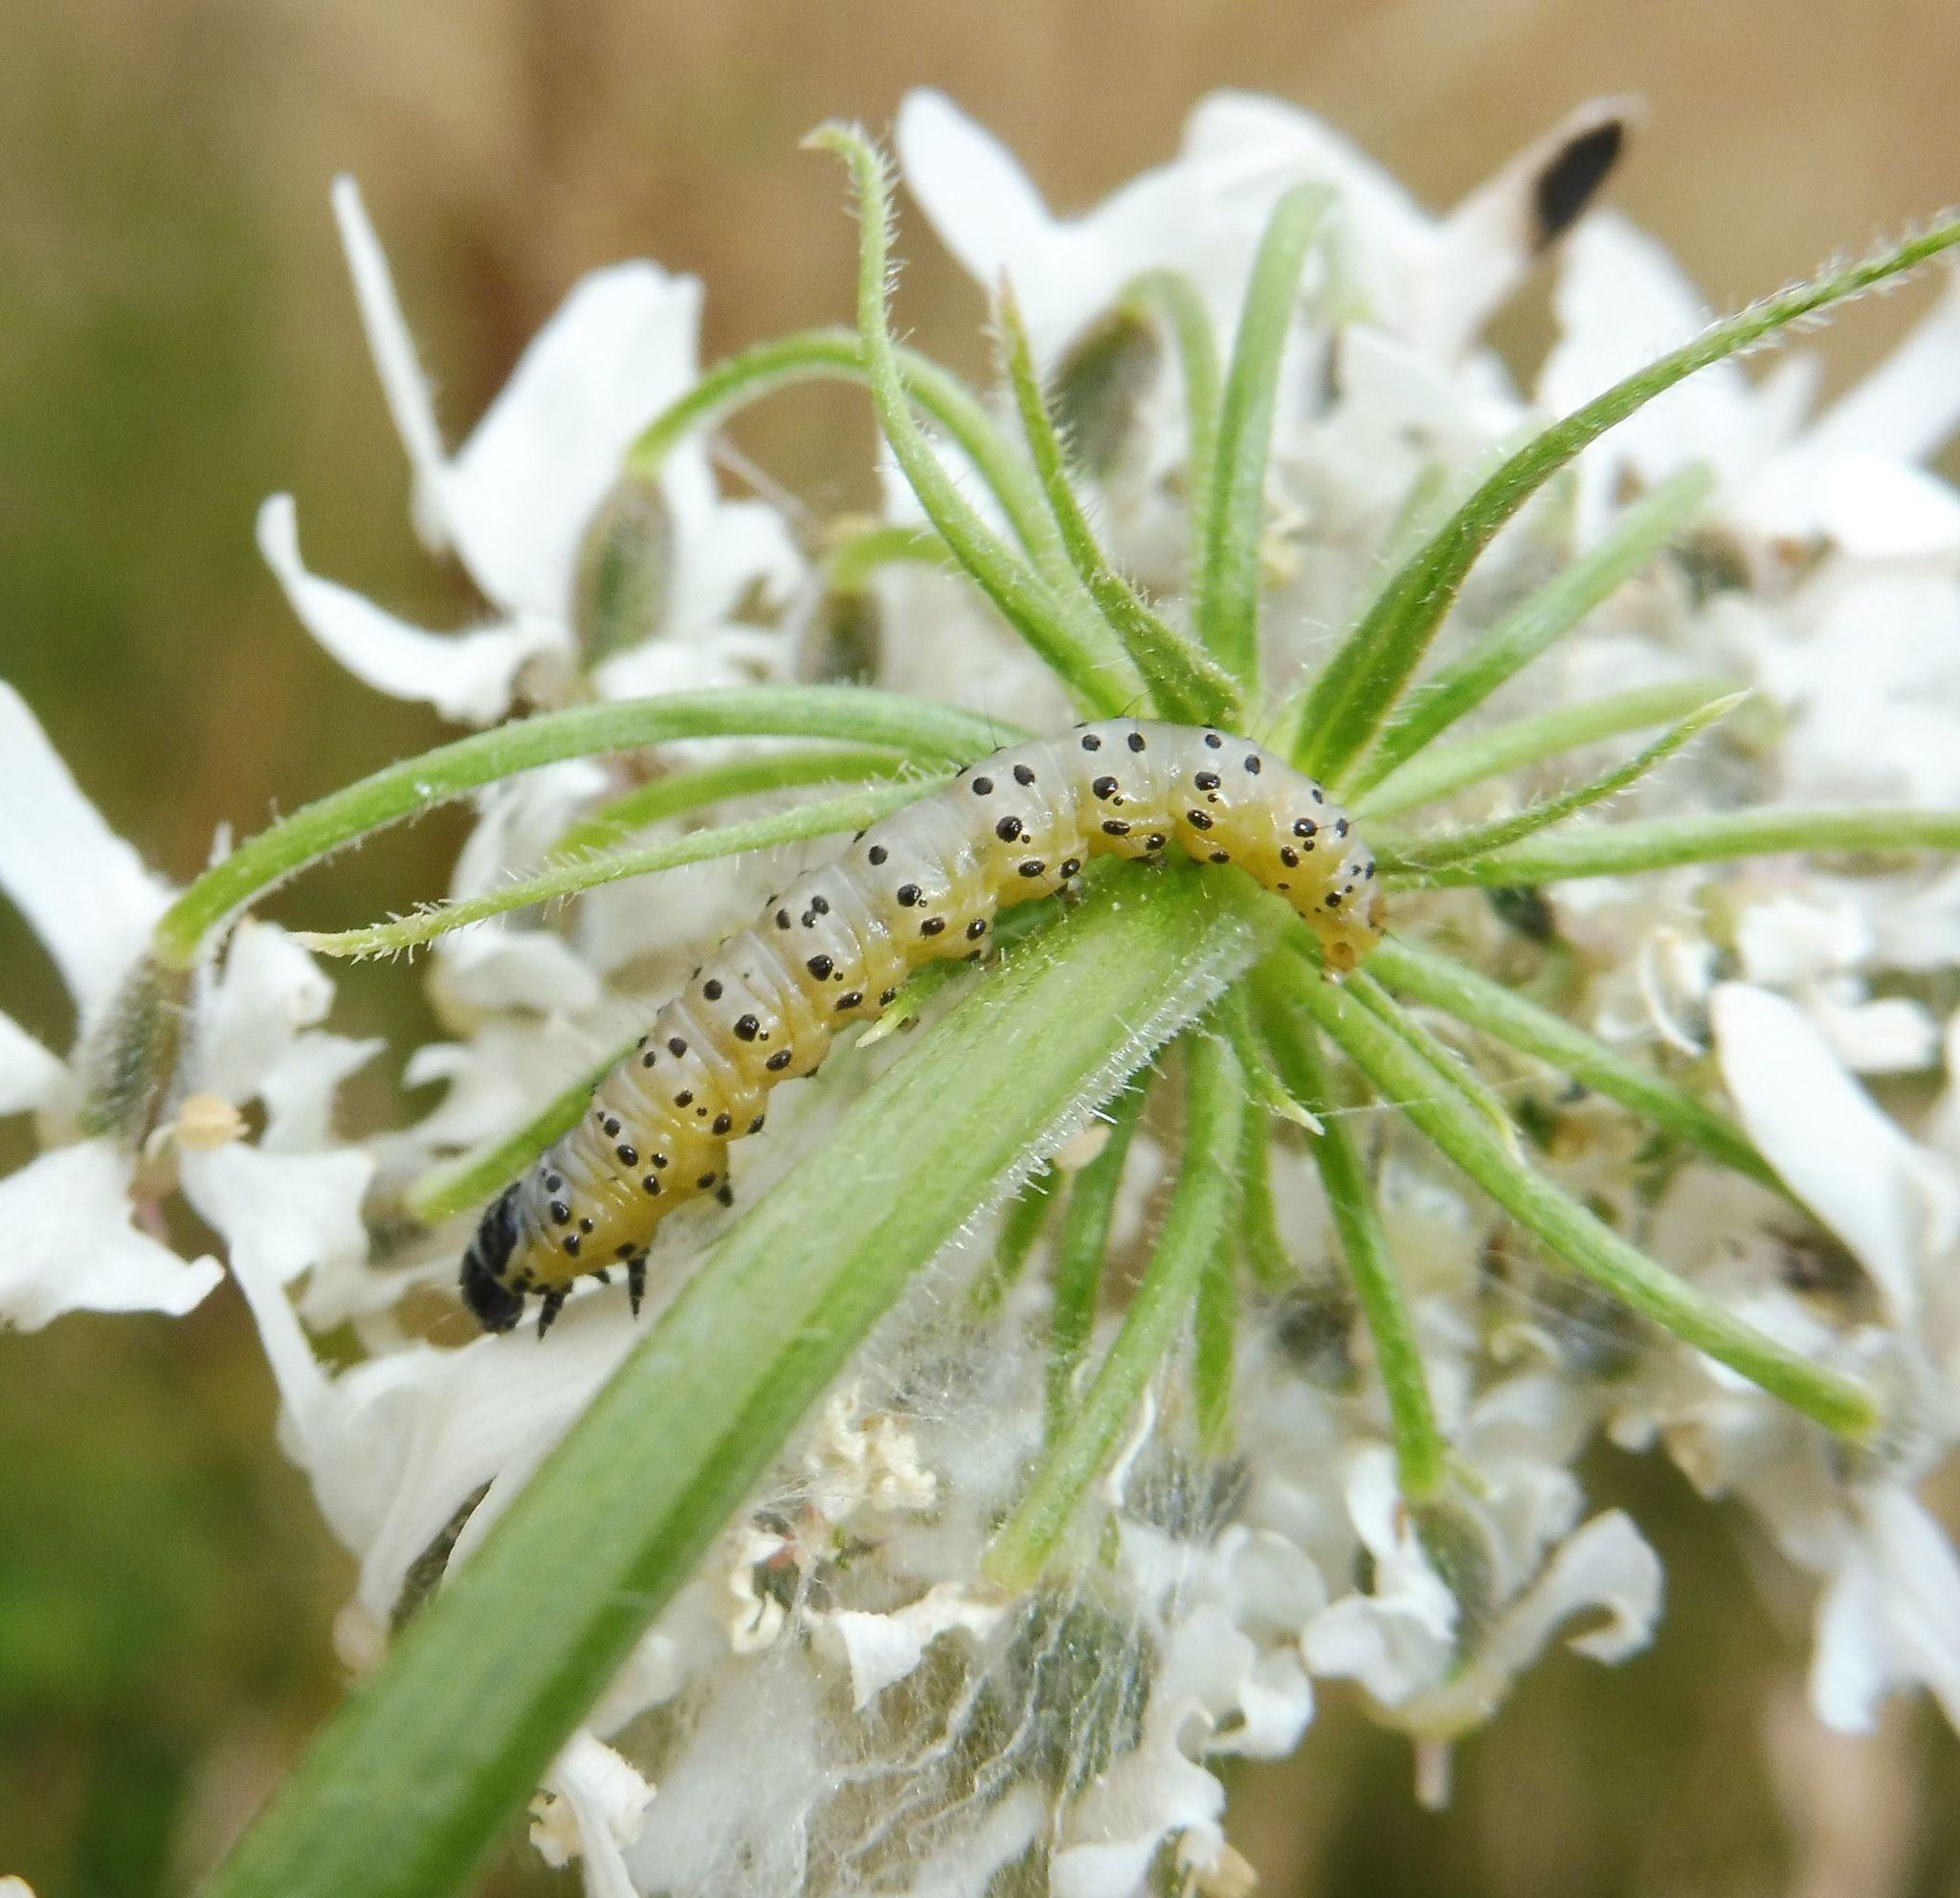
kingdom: Animalia
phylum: Arthropoda
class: Insecta
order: Lepidoptera
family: Depressariidae
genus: Depressaria
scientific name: Depressaria radiella
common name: Parsnip moth
